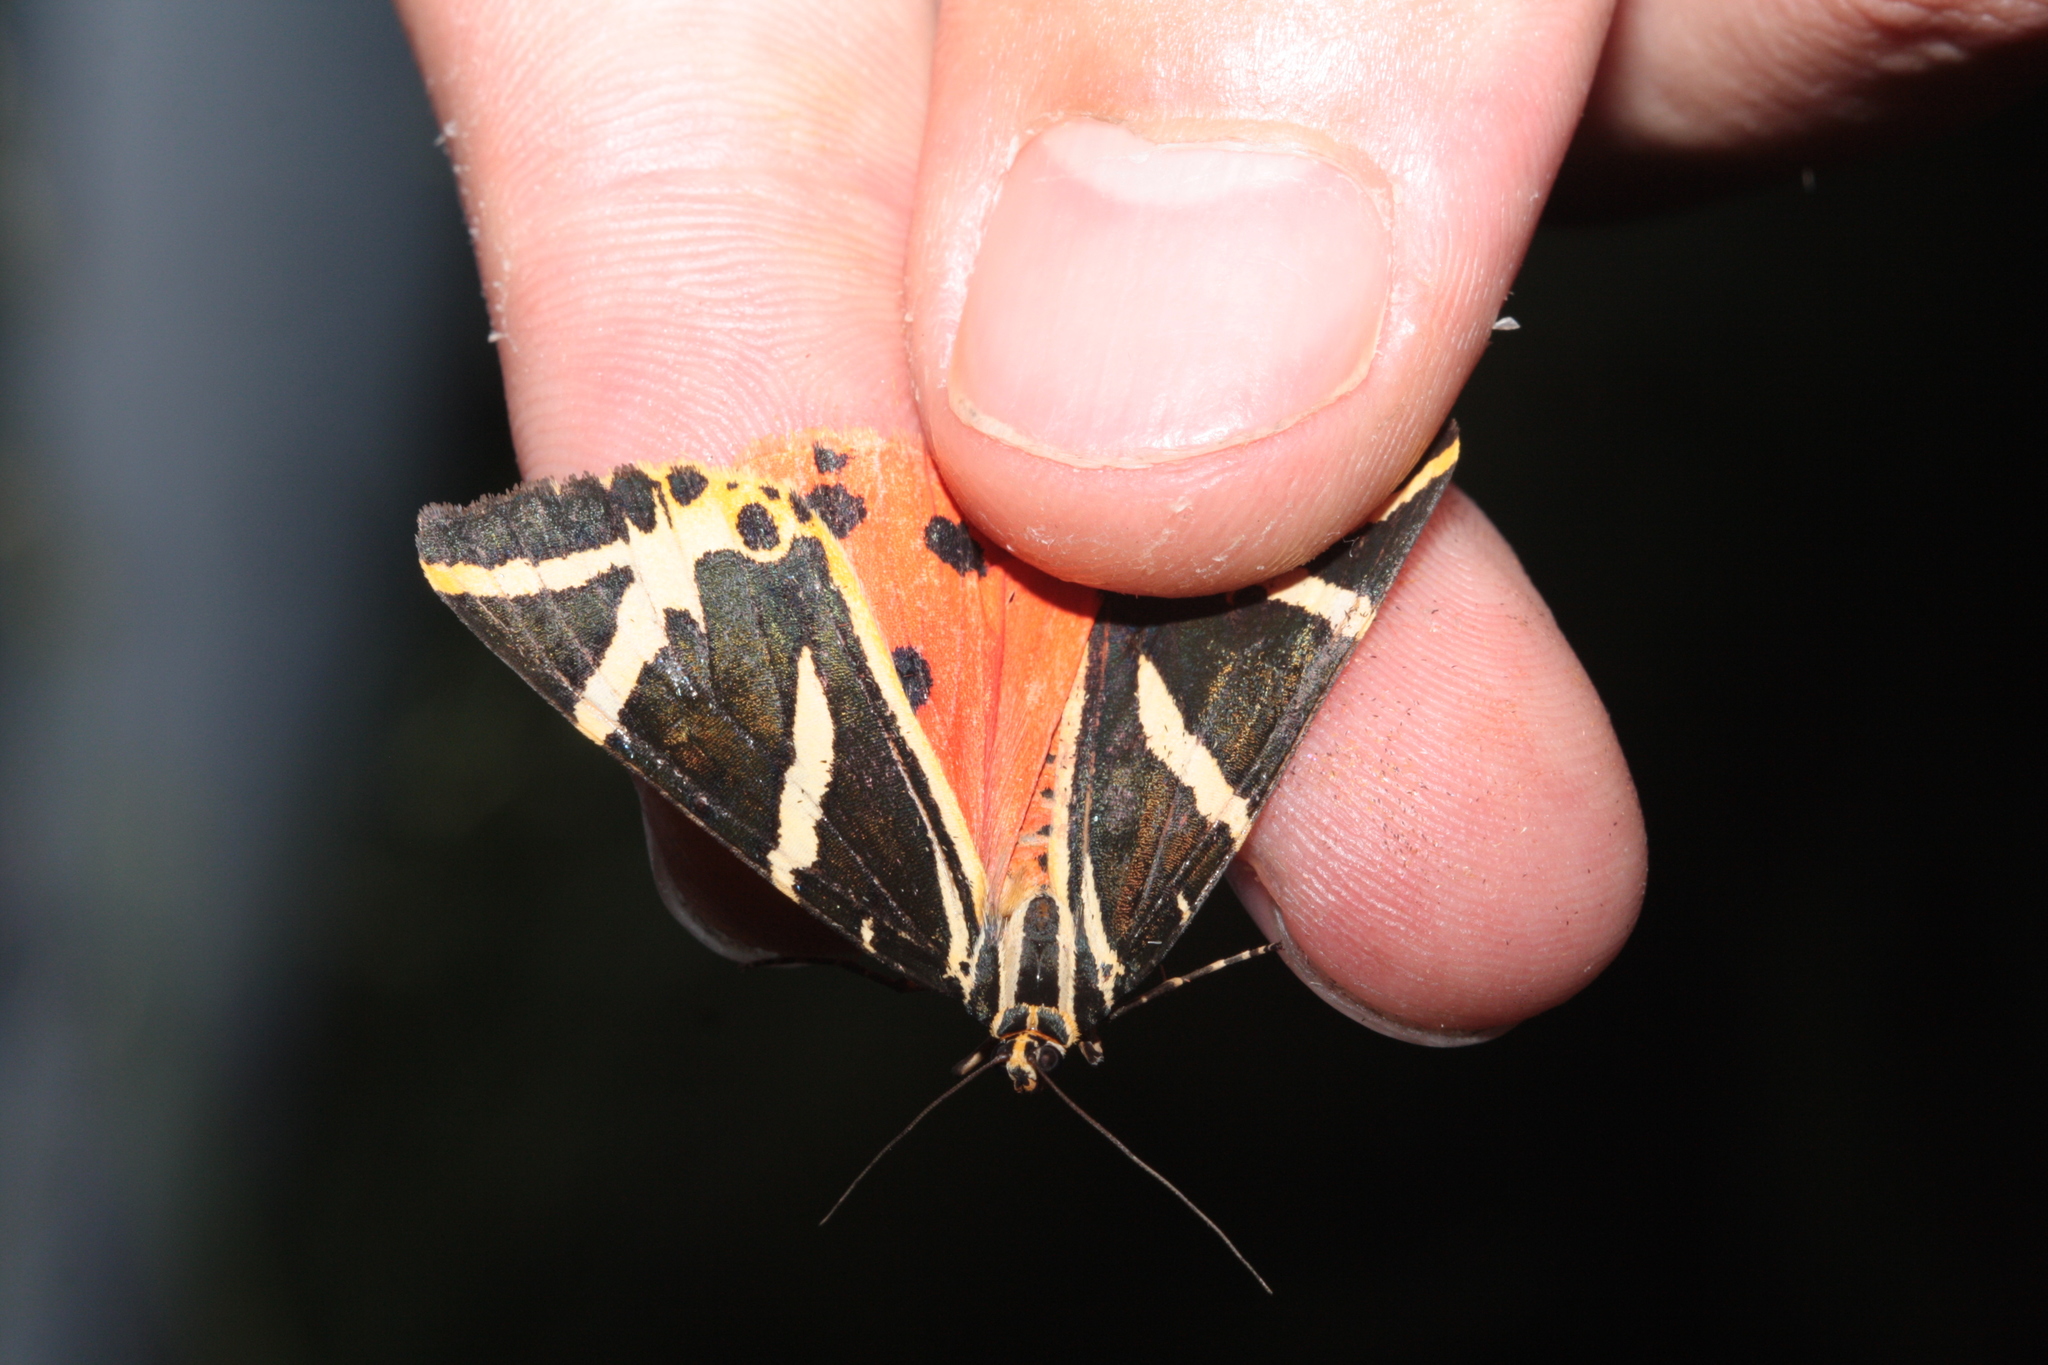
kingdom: Animalia
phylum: Arthropoda
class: Insecta
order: Lepidoptera
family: Erebidae
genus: Euplagia
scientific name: Euplagia quadripunctaria
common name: Jersey tiger
